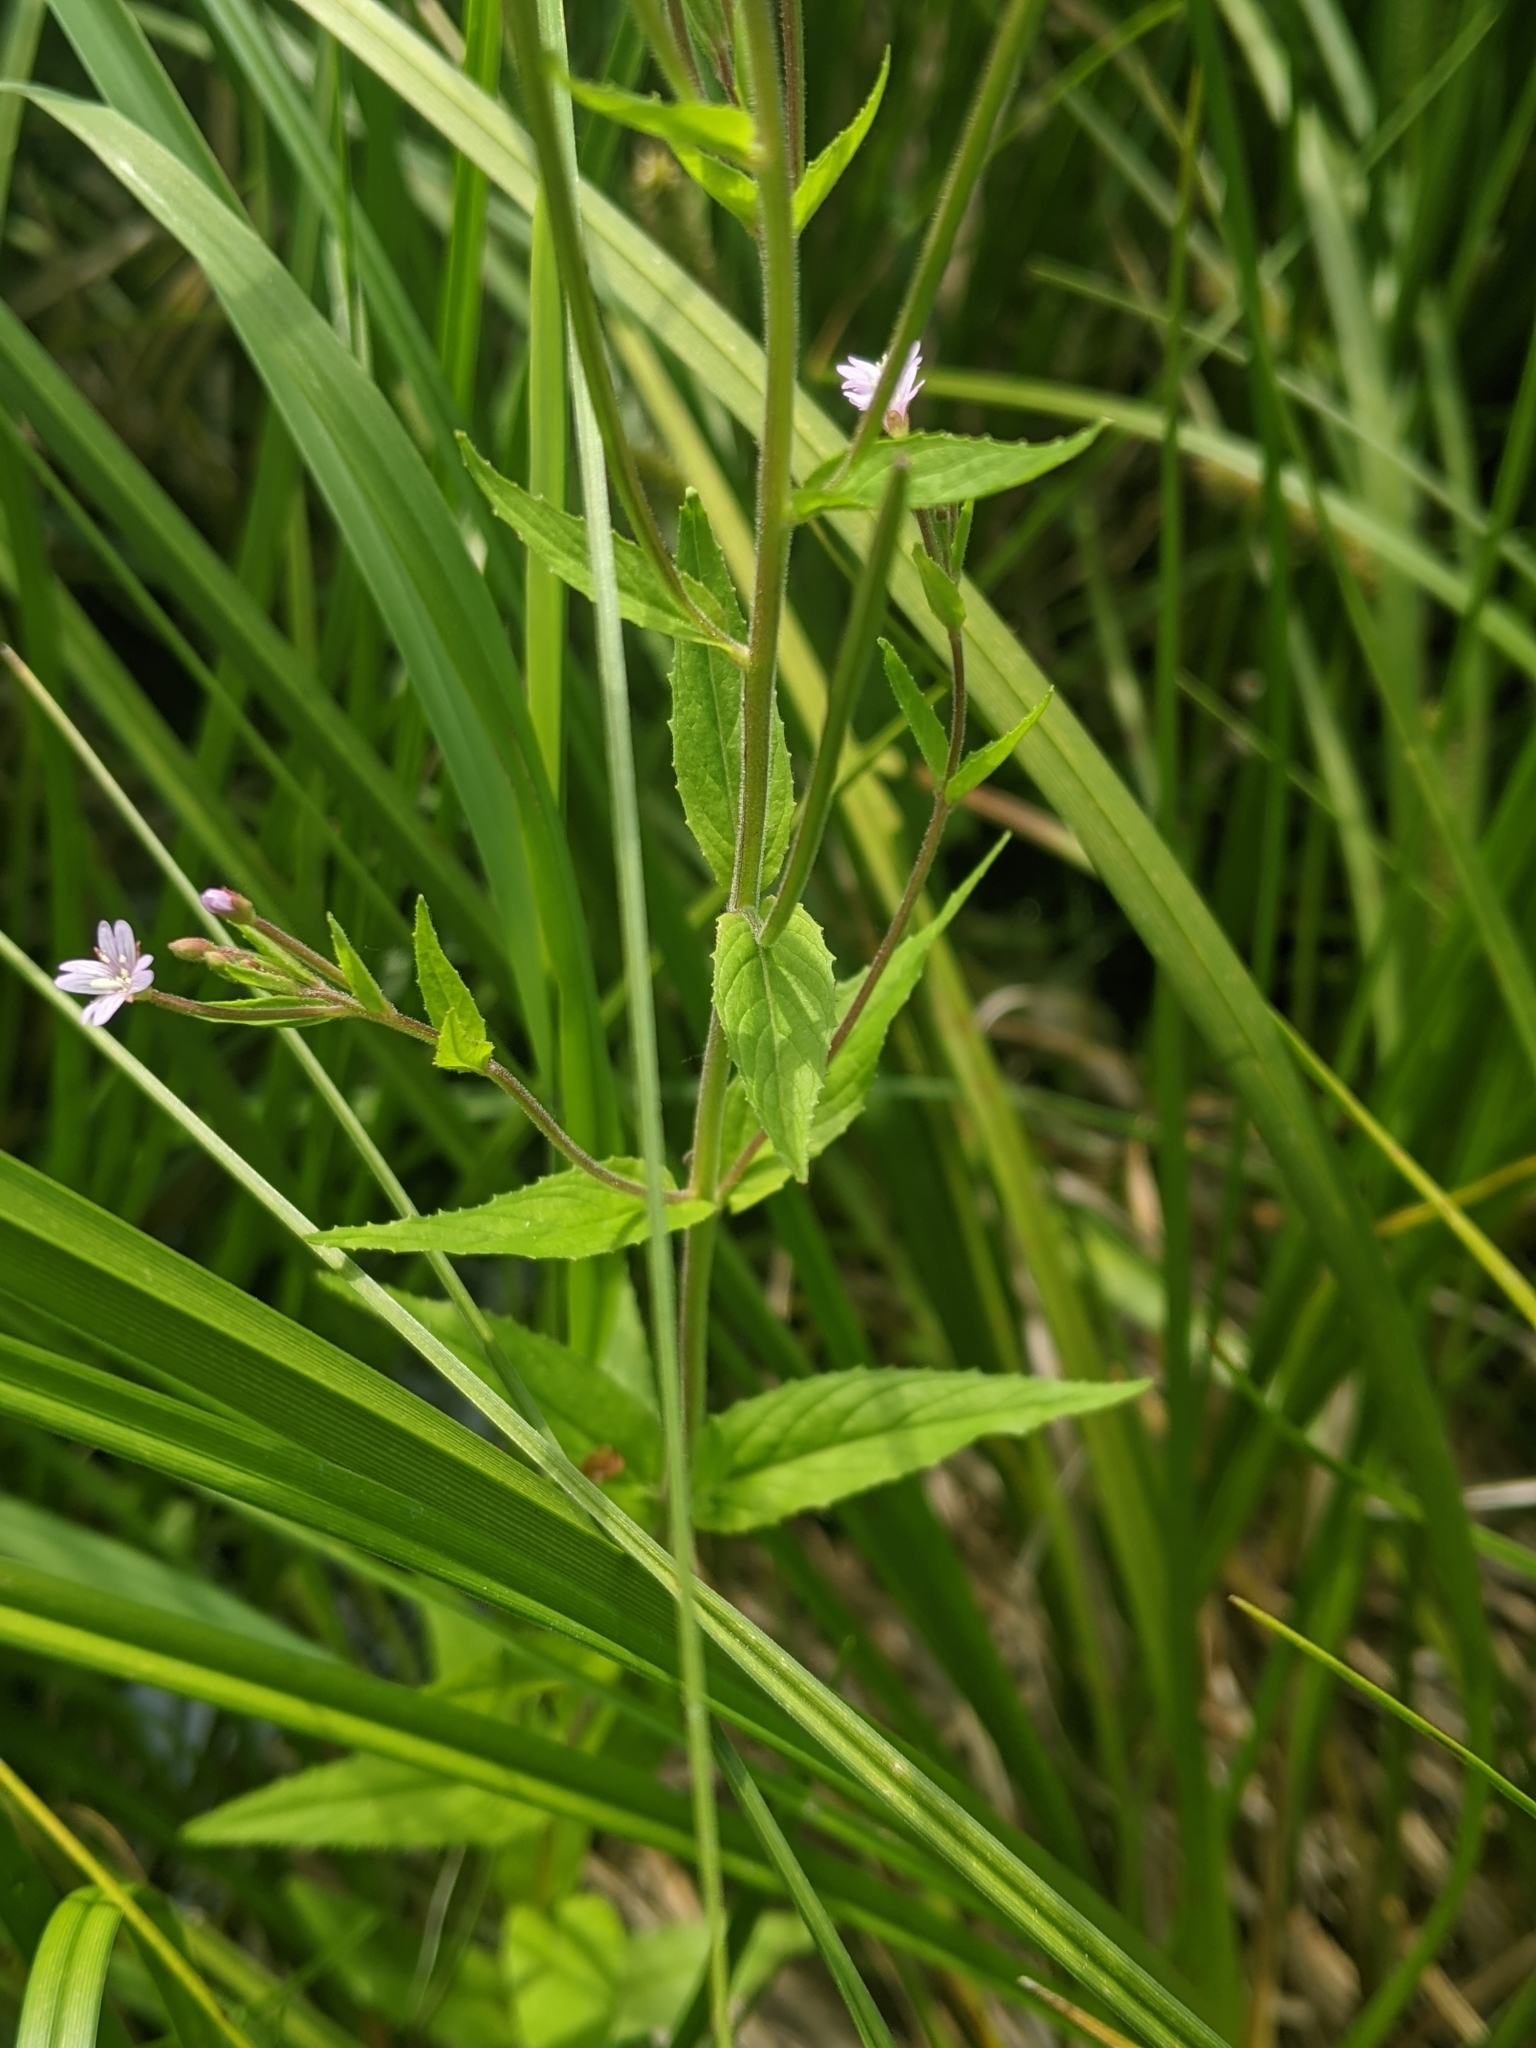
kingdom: Plantae
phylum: Tracheophyta
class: Magnoliopsida
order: Myrtales
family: Onagraceae
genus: Epilobium
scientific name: Epilobium ciliatum
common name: American willowherb
